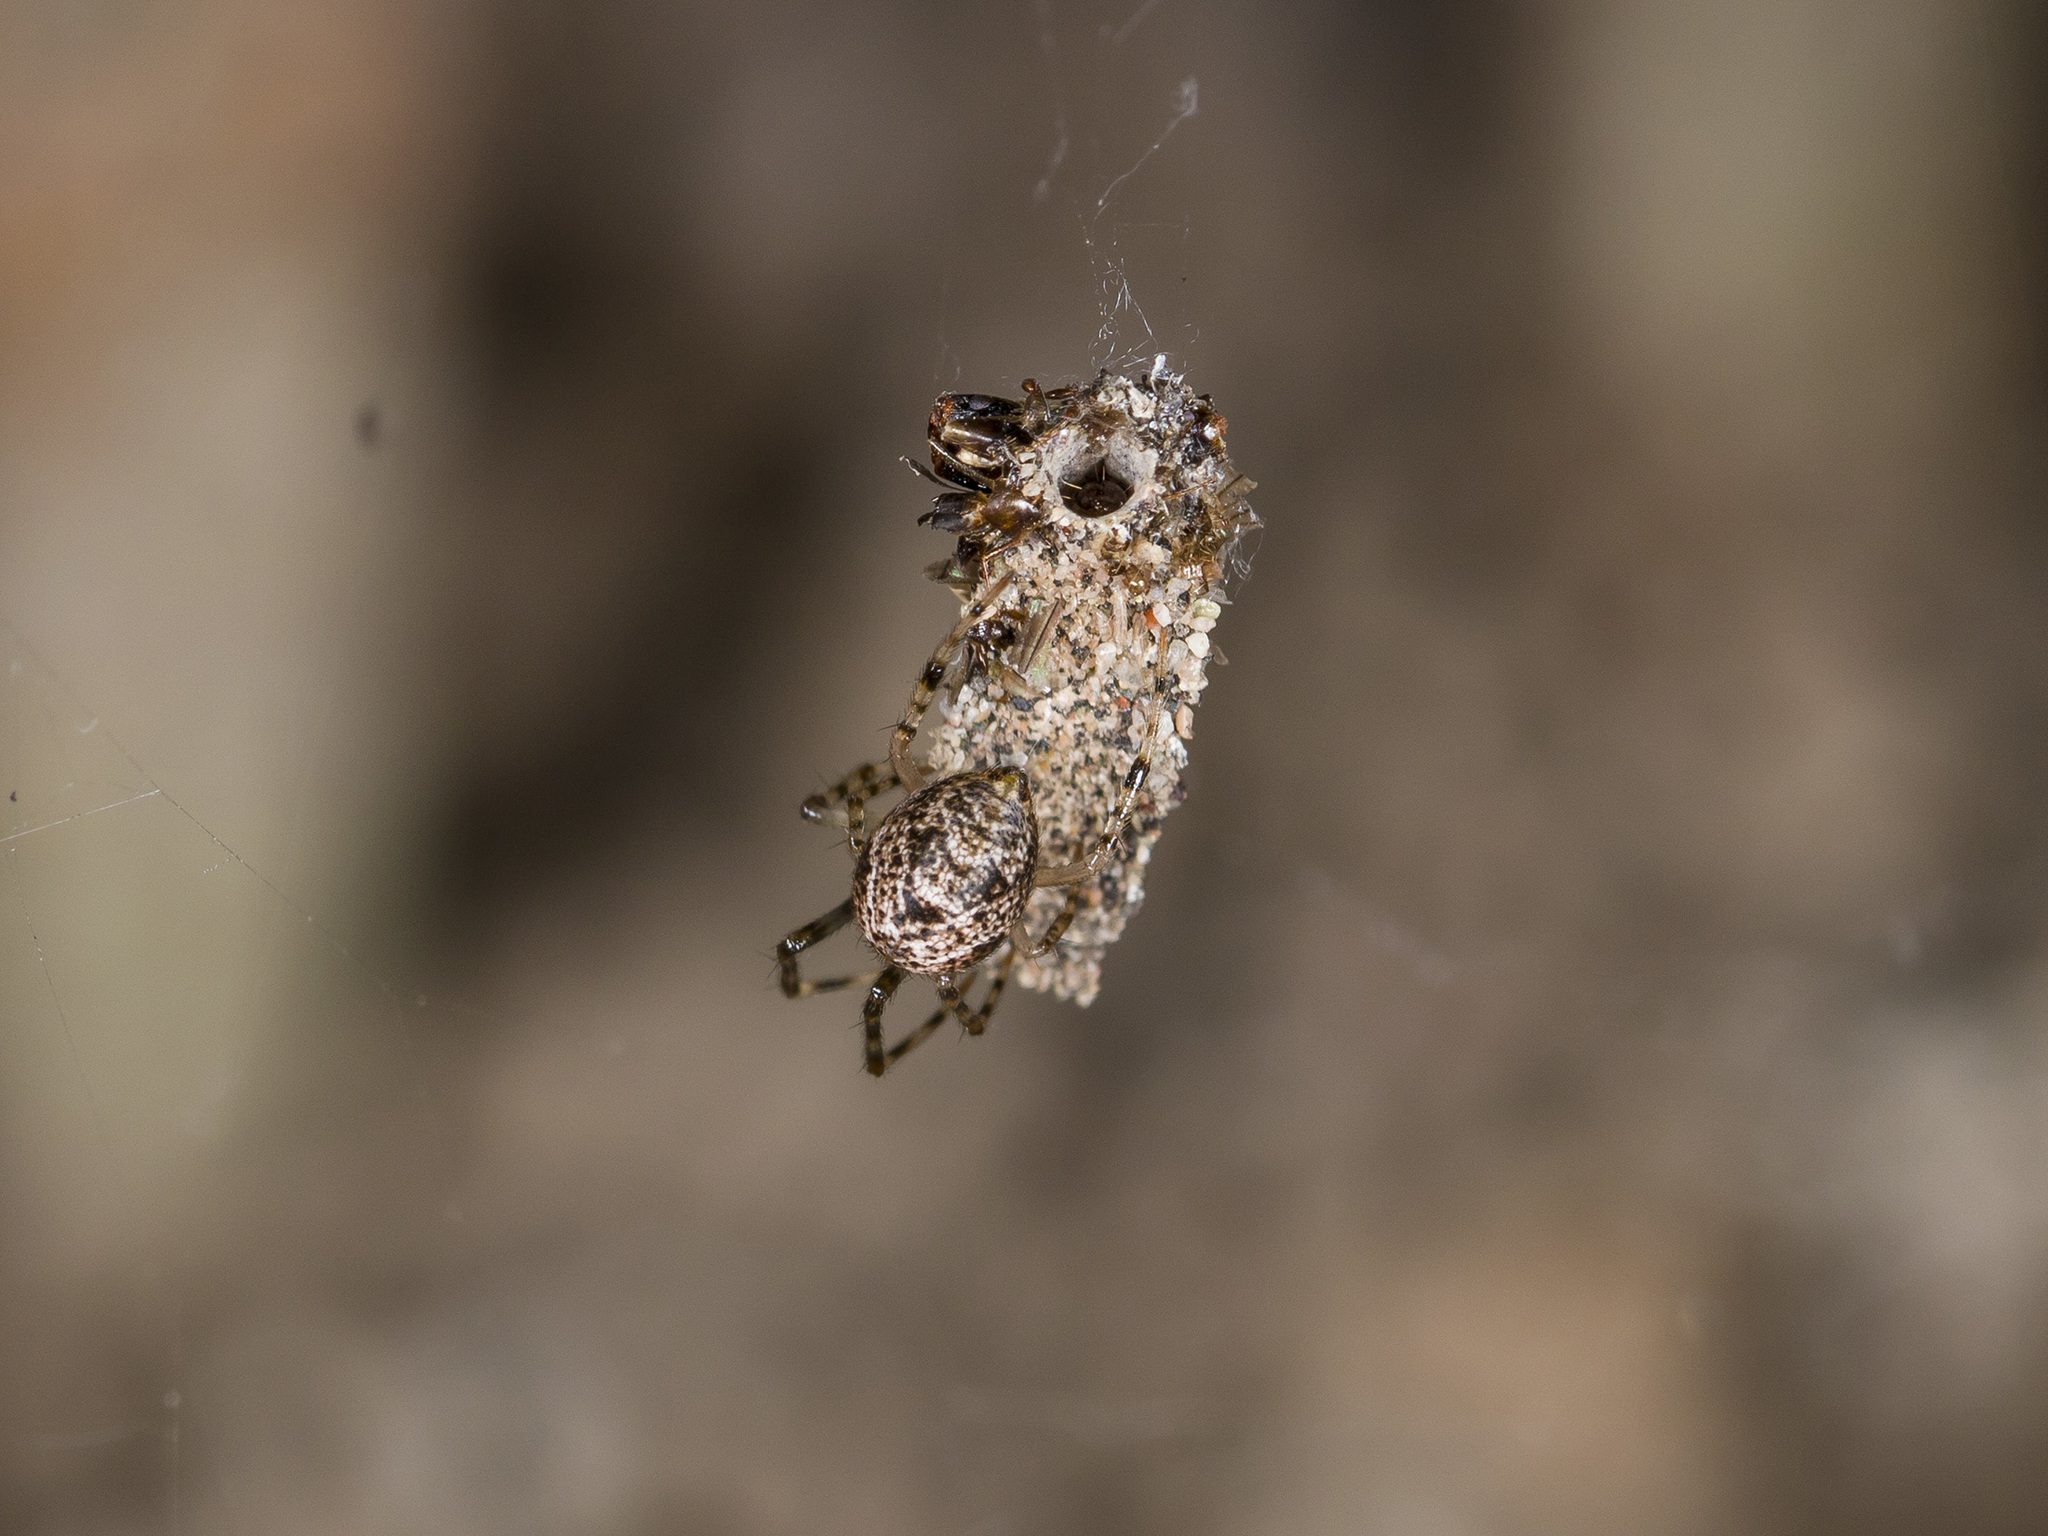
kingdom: Animalia
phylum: Arthropoda
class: Arachnida
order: Araneae
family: Theridiidae
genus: Parasteatoda
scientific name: Parasteatoda tepidariorum
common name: Common house spider
